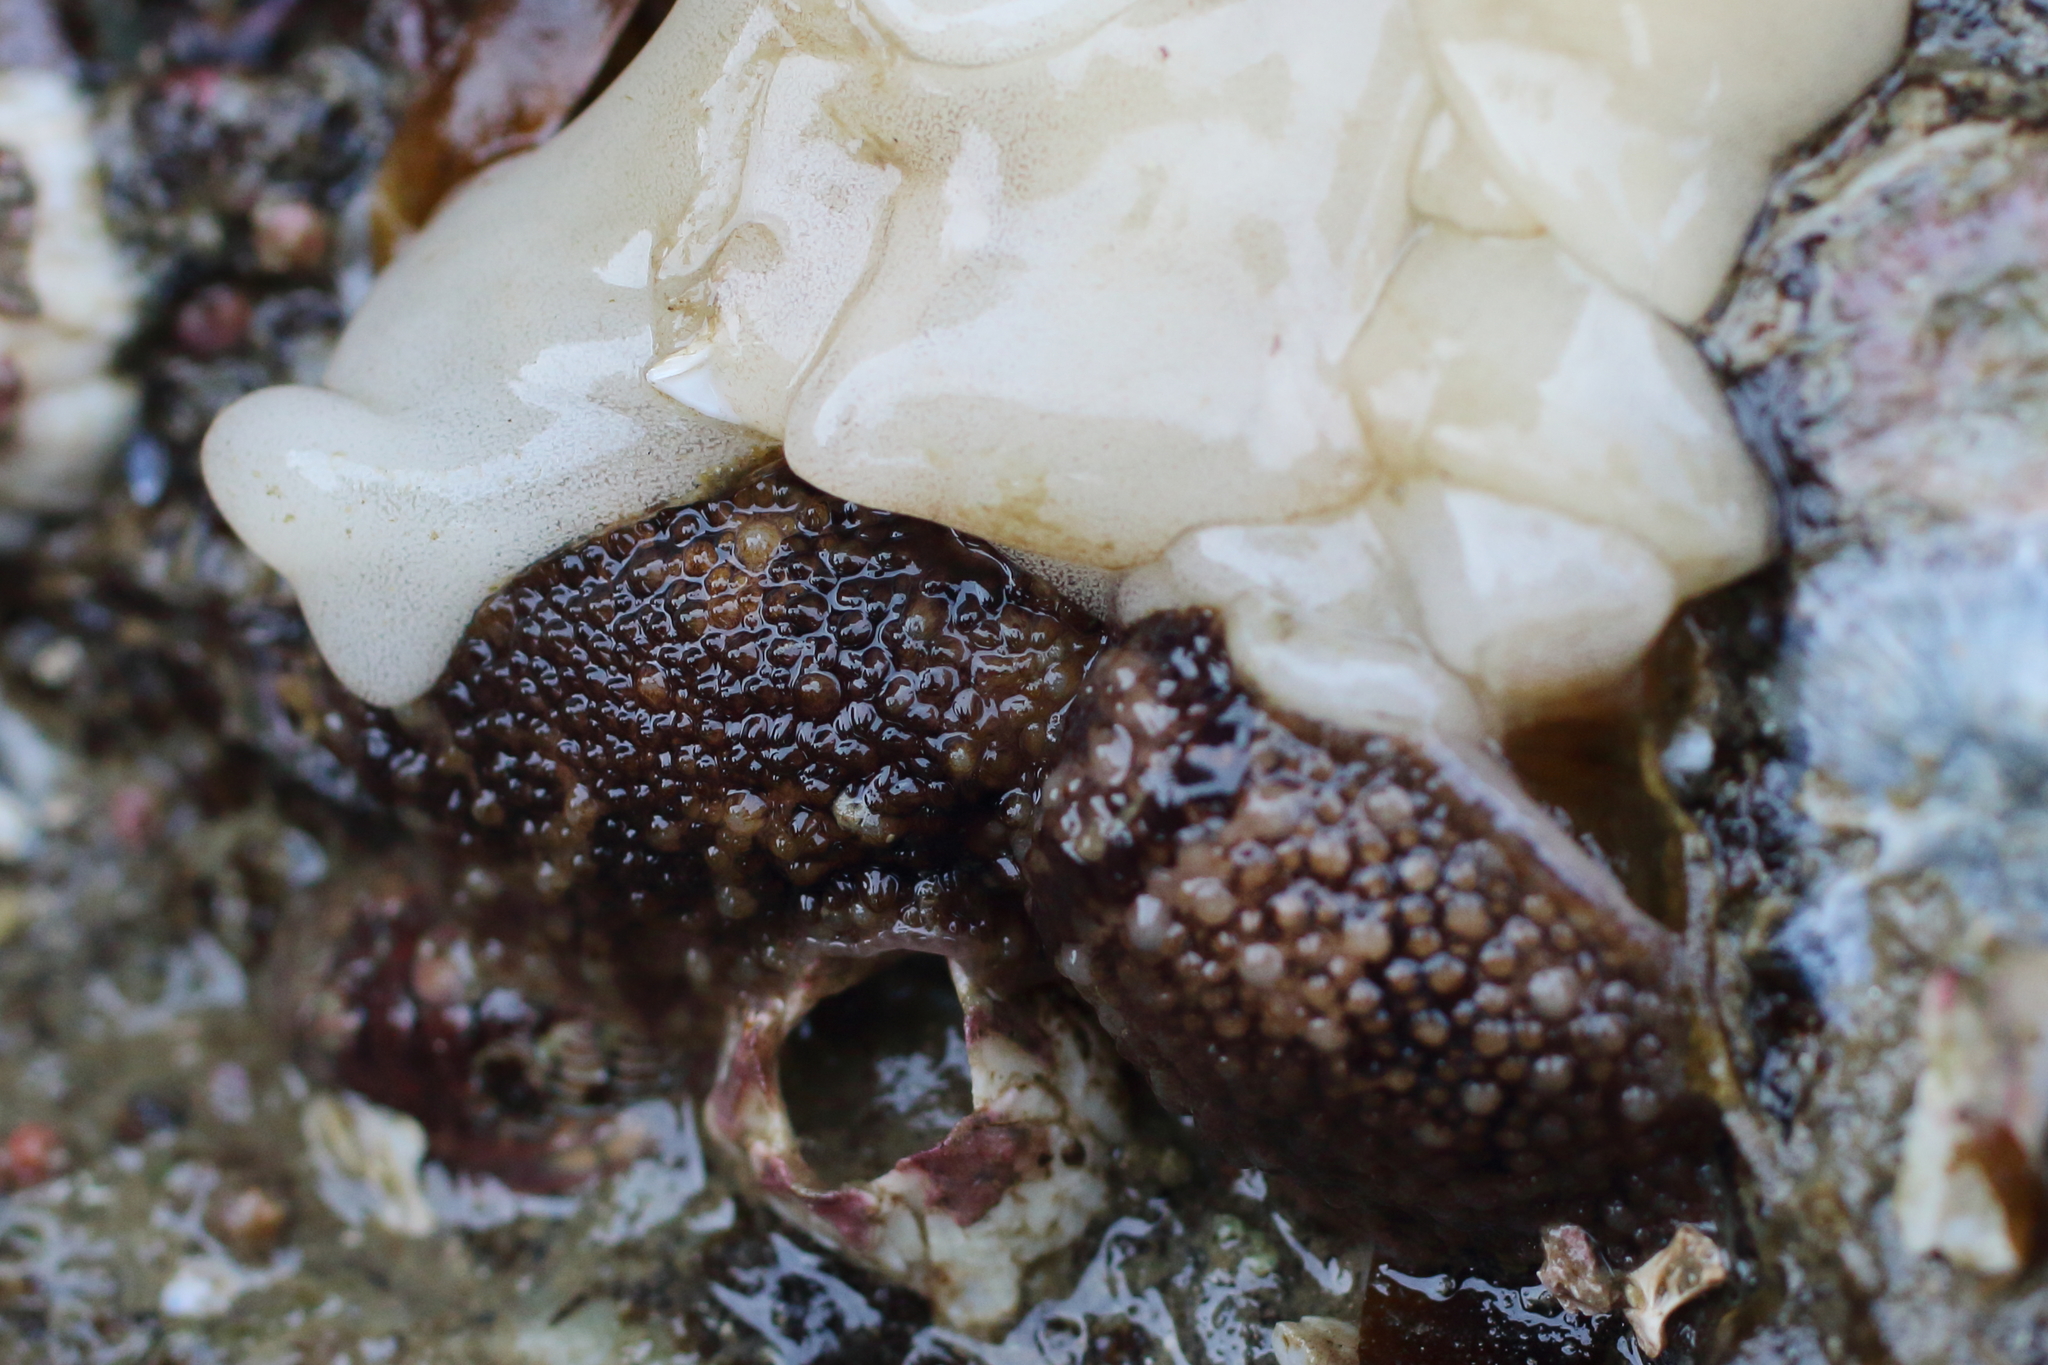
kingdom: Animalia
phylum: Mollusca
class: Gastropoda
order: Nudibranchia
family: Onchidorididae
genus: Onchidoris
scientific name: Onchidoris bilamellata
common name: Barnacle-eating onchidoris
